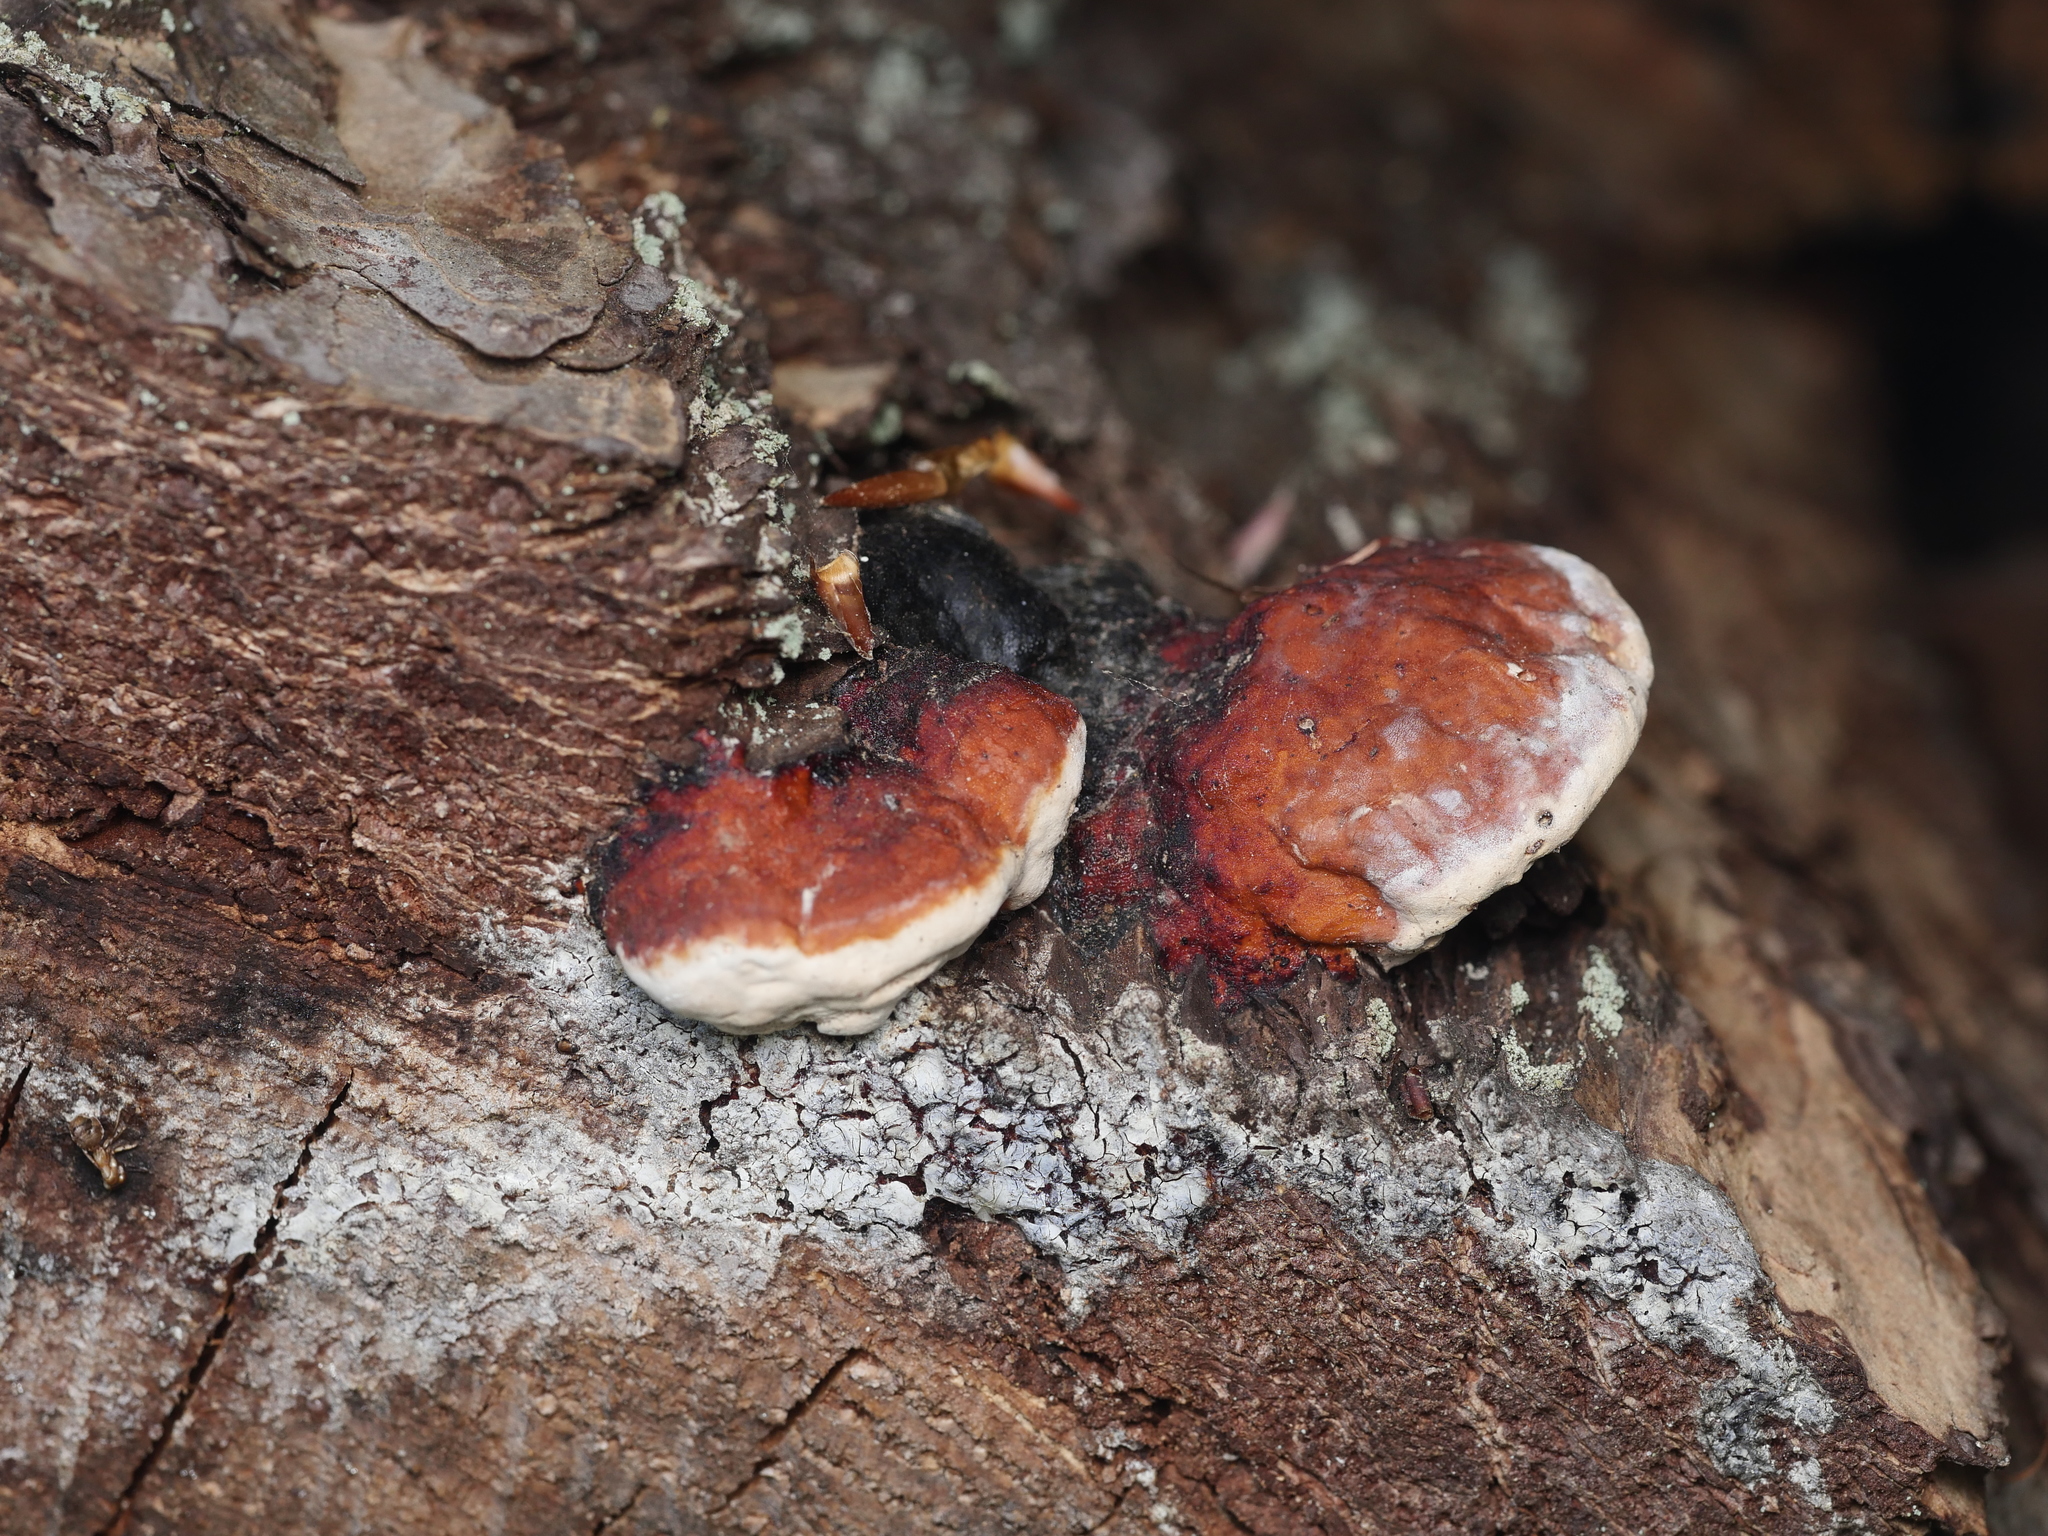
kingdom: Fungi
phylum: Basidiomycota
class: Agaricomycetes
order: Polyporales
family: Fomitopsidaceae
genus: Fomitopsis
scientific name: Fomitopsis pinicola
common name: Red-belted bracket
